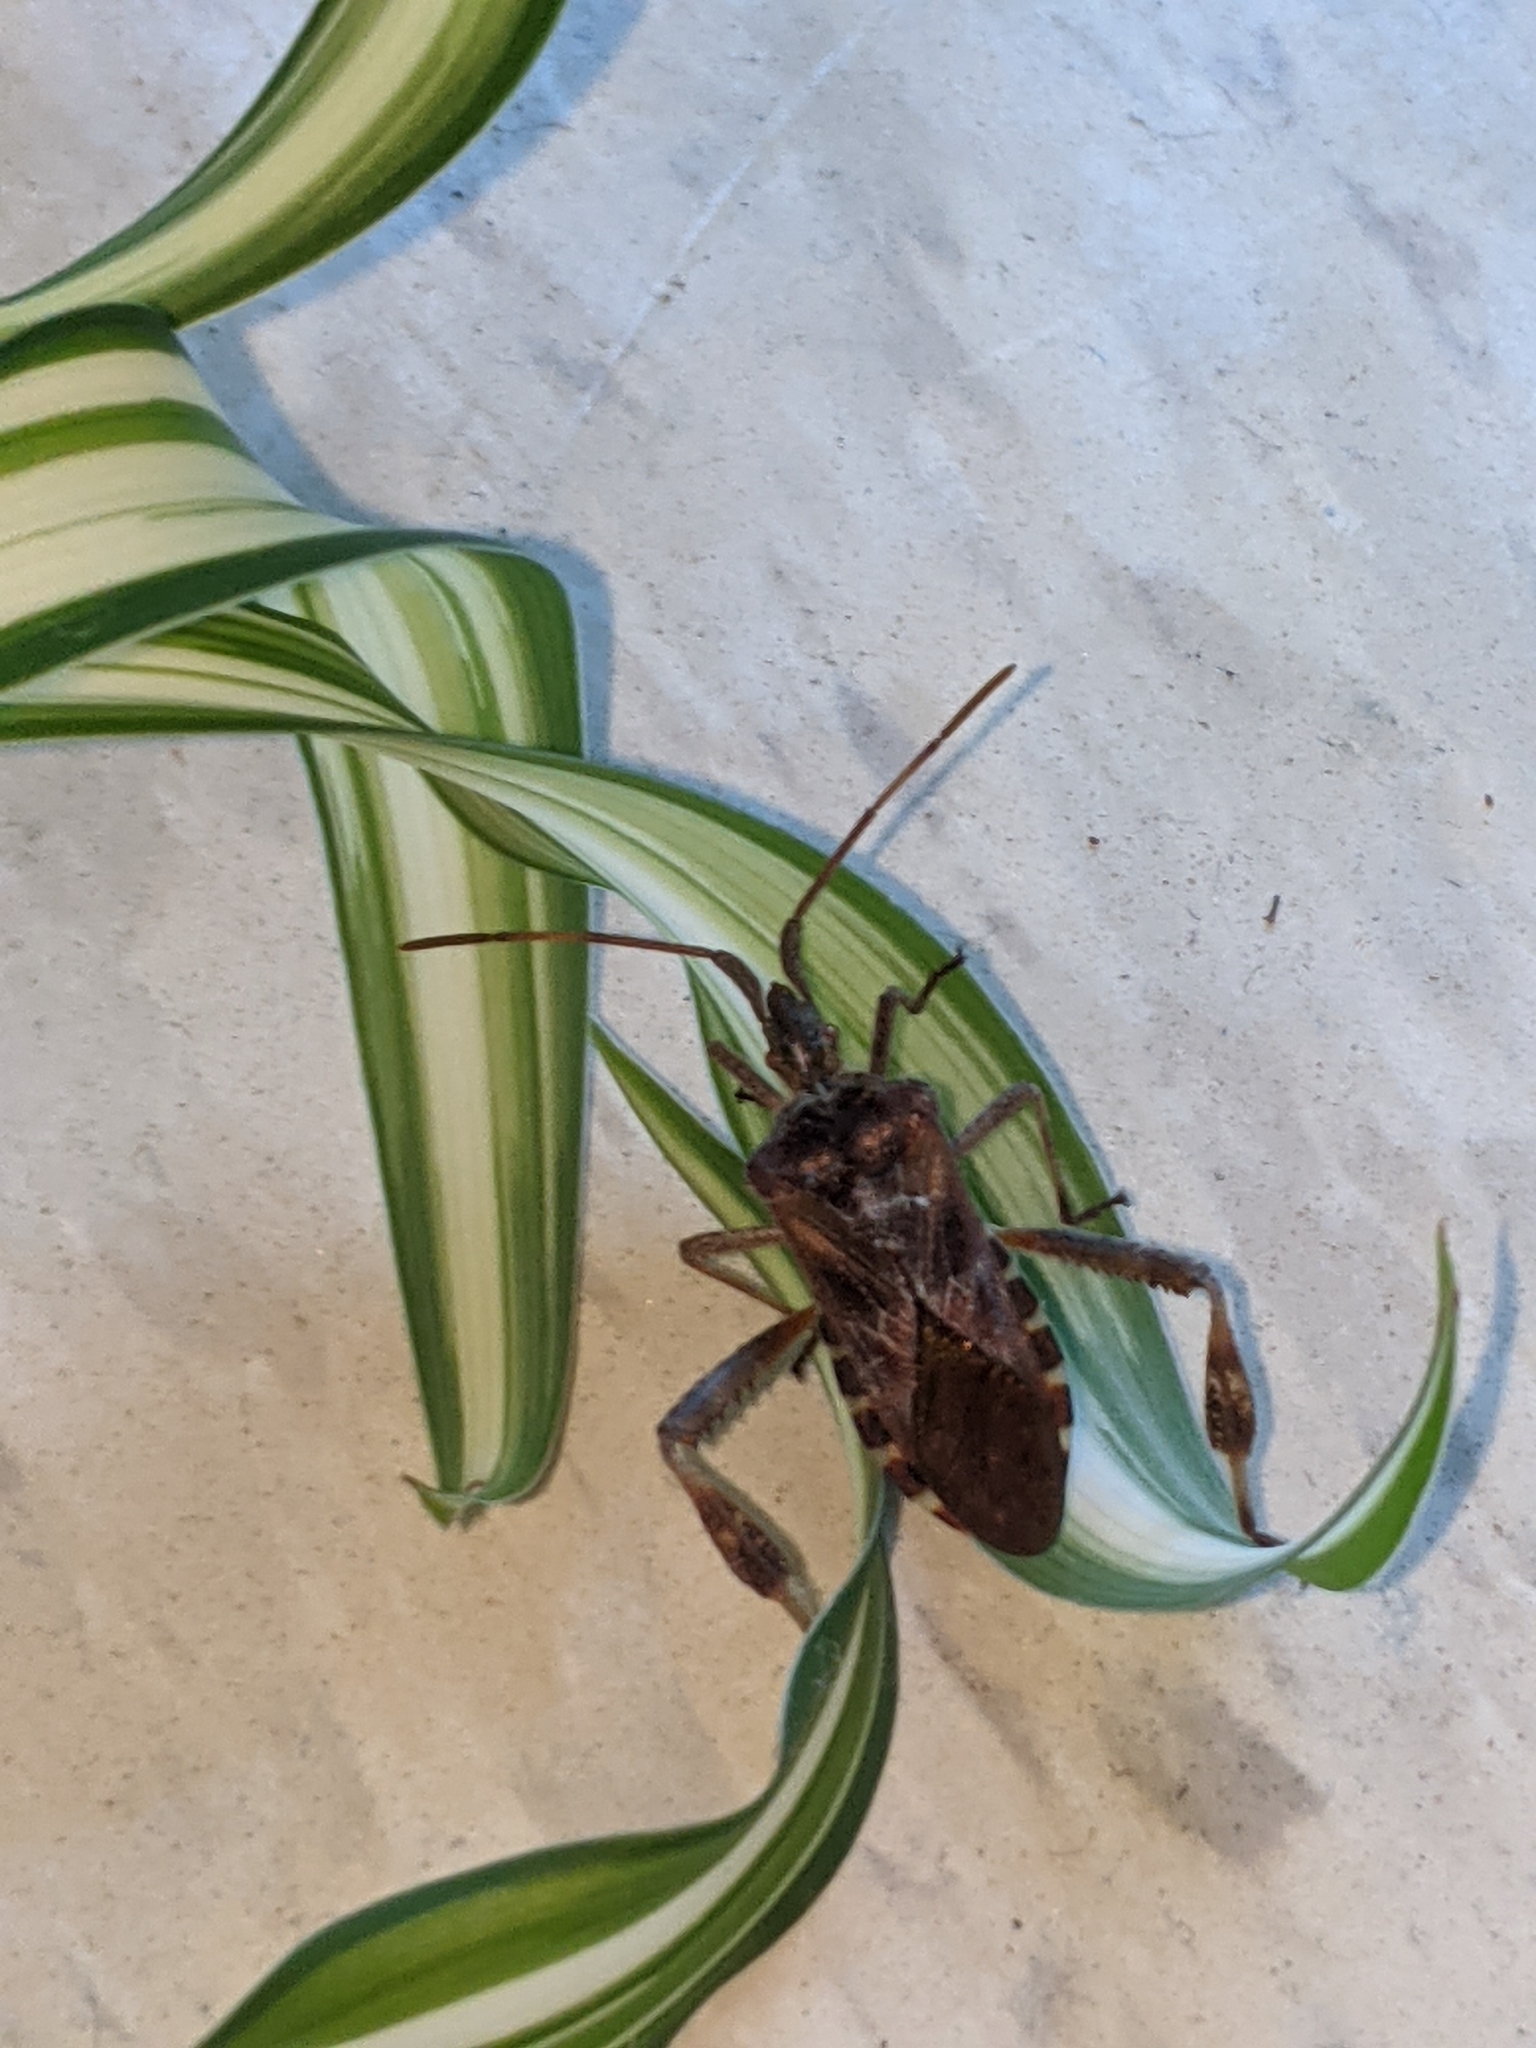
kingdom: Animalia
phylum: Arthropoda
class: Insecta
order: Hemiptera
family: Coreidae
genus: Leptoglossus
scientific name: Leptoglossus occidentalis
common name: Western conifer-seed bug
